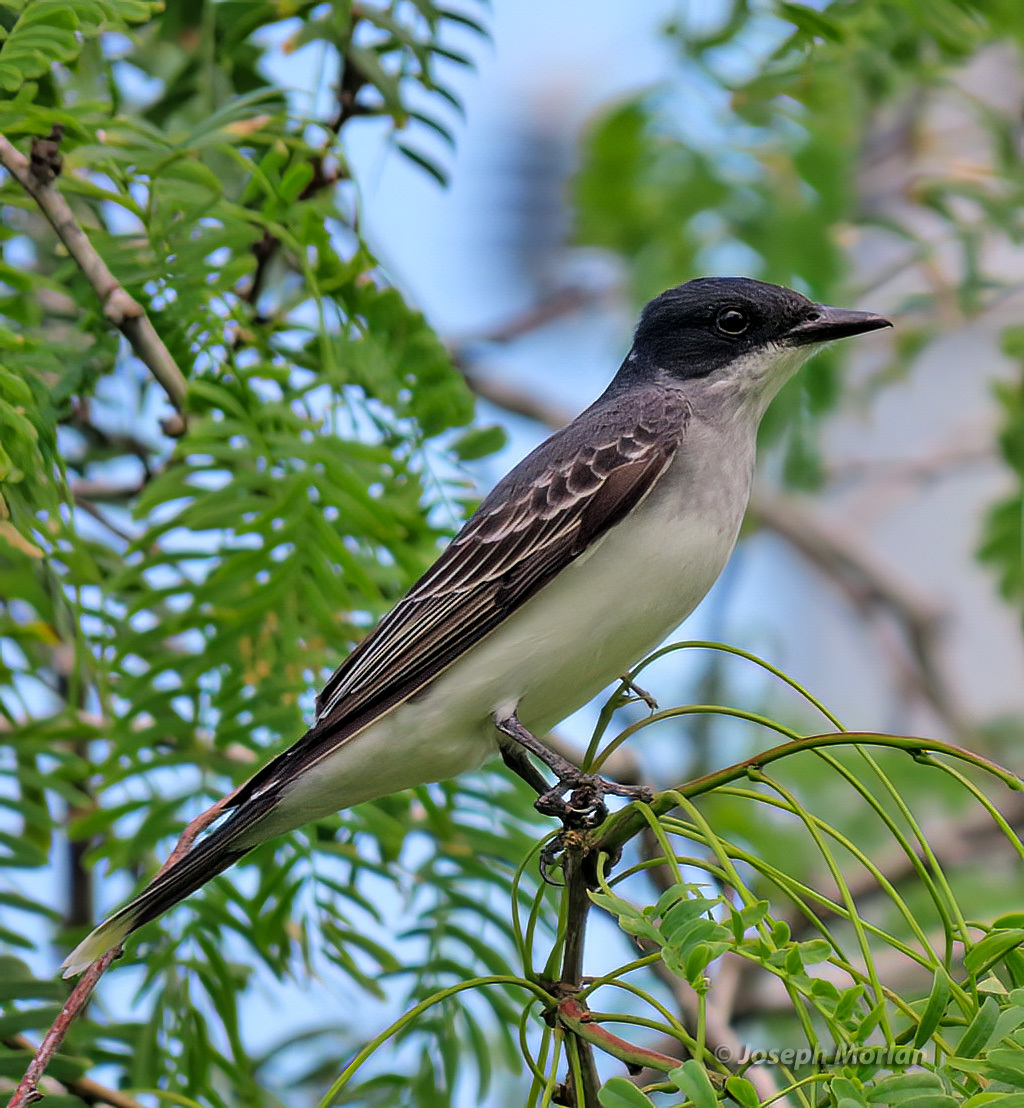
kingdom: Animalia
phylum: Chordata
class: Aves
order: Passeriformes
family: Tyrannidae
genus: Tyrannus
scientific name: Tyrannus tyrannus
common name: Eastern kingbird
